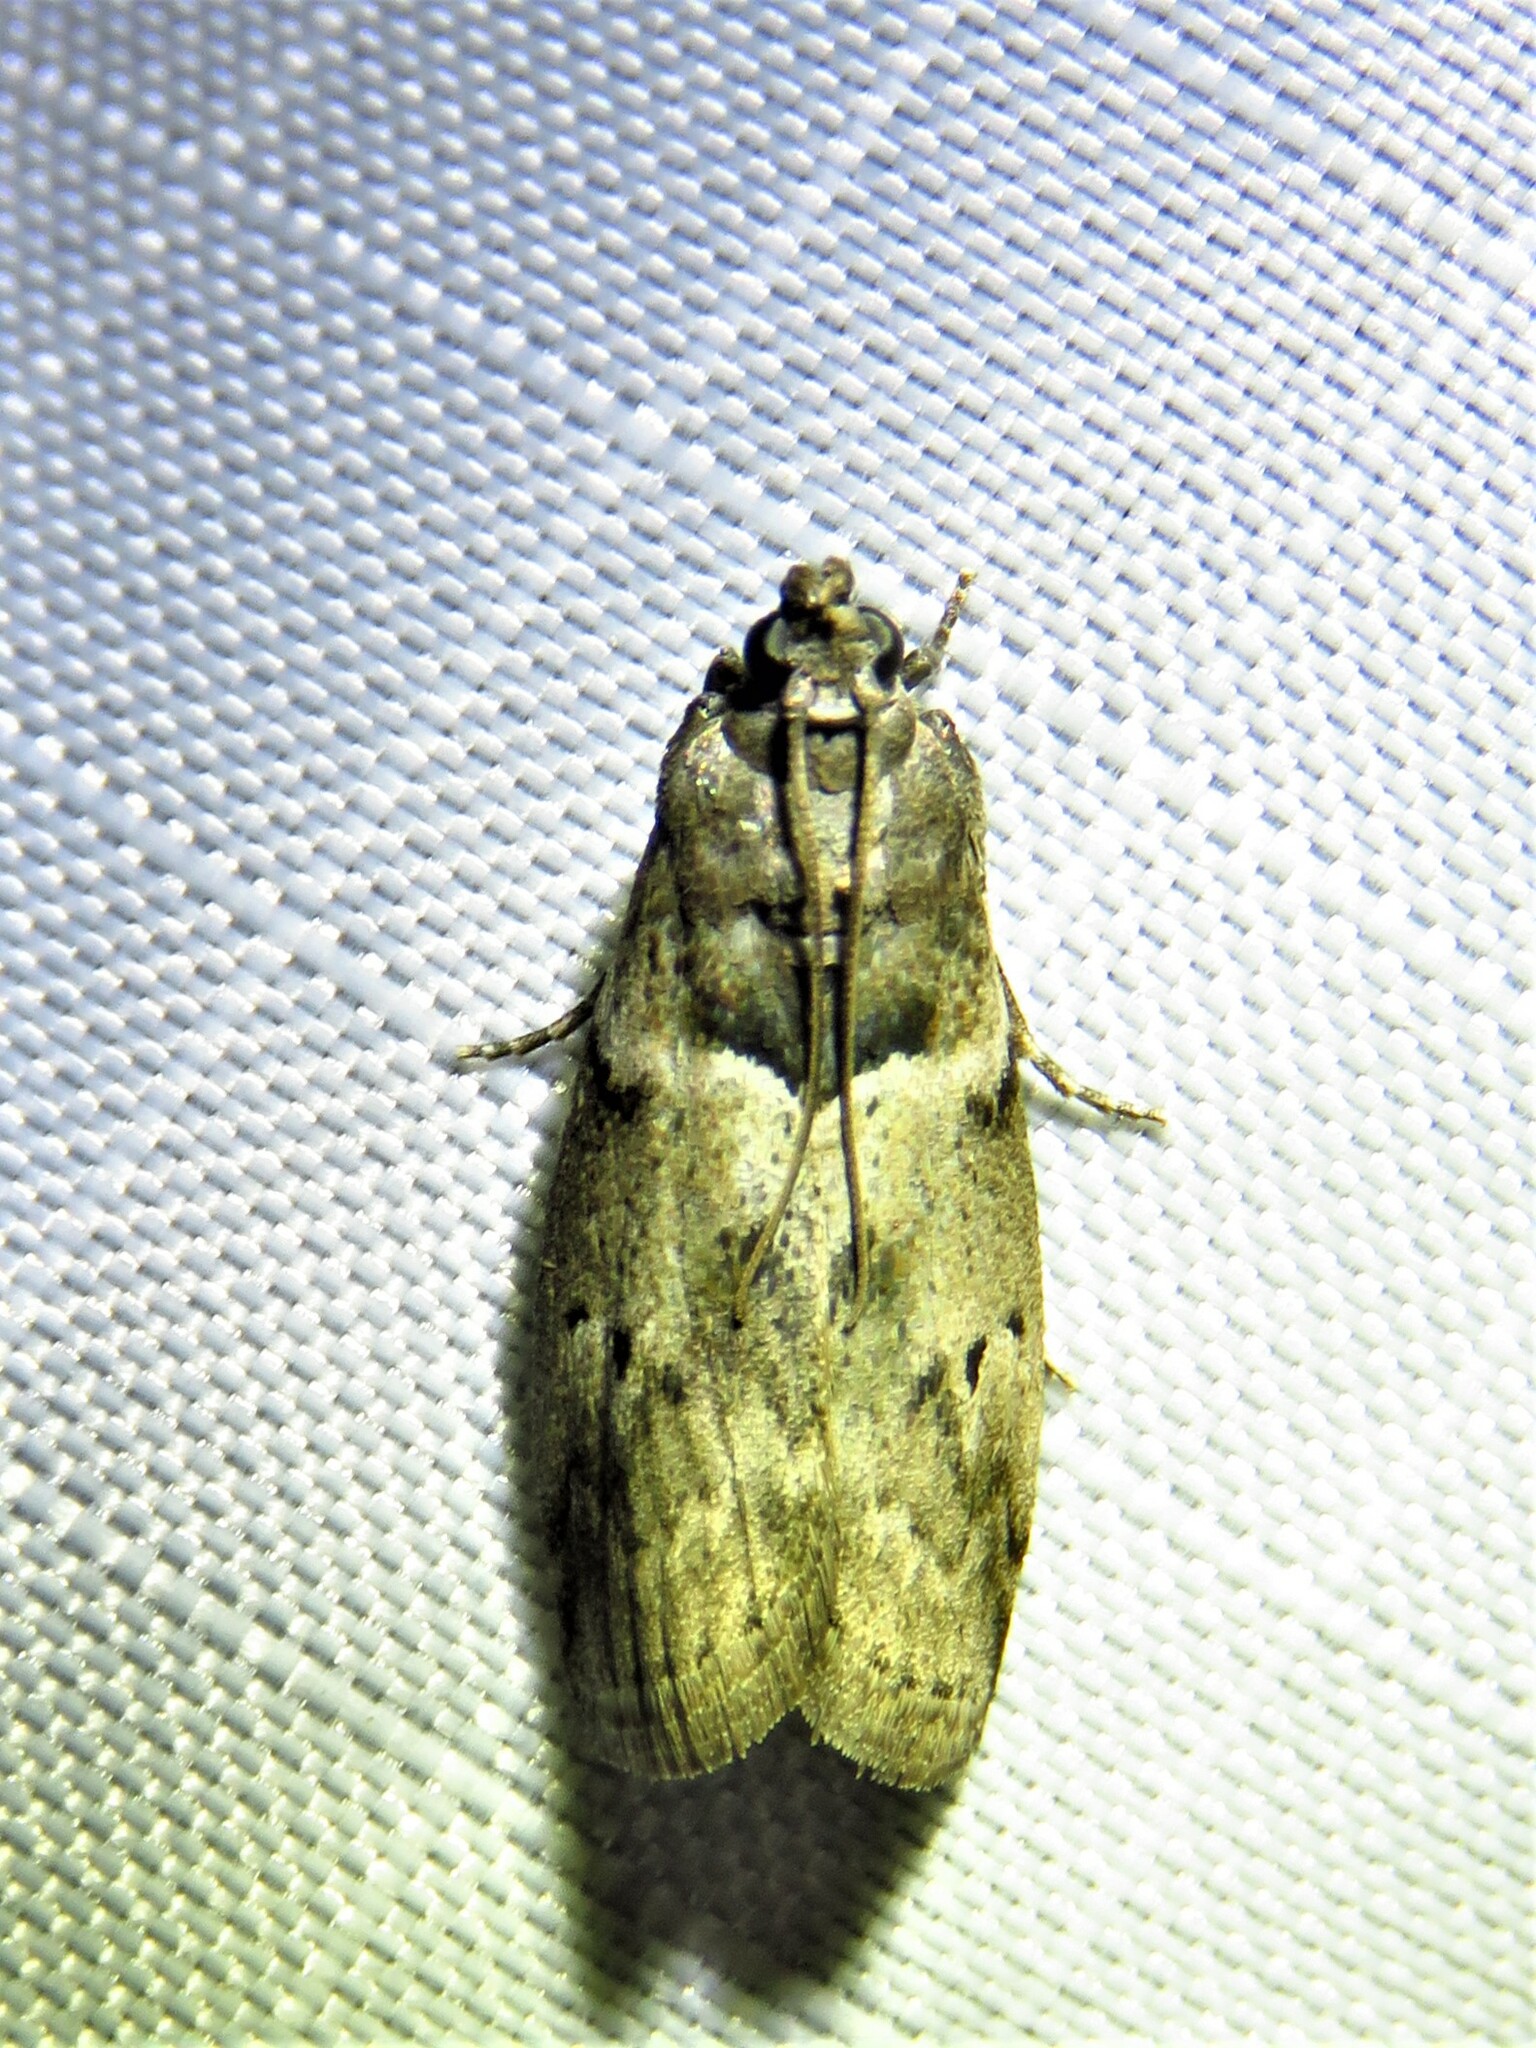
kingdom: Animalia
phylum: Arthropoda
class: Insecta
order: Lepidoptera
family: Pyralidae
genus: Salebriaria
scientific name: Salebriaria annulosella
